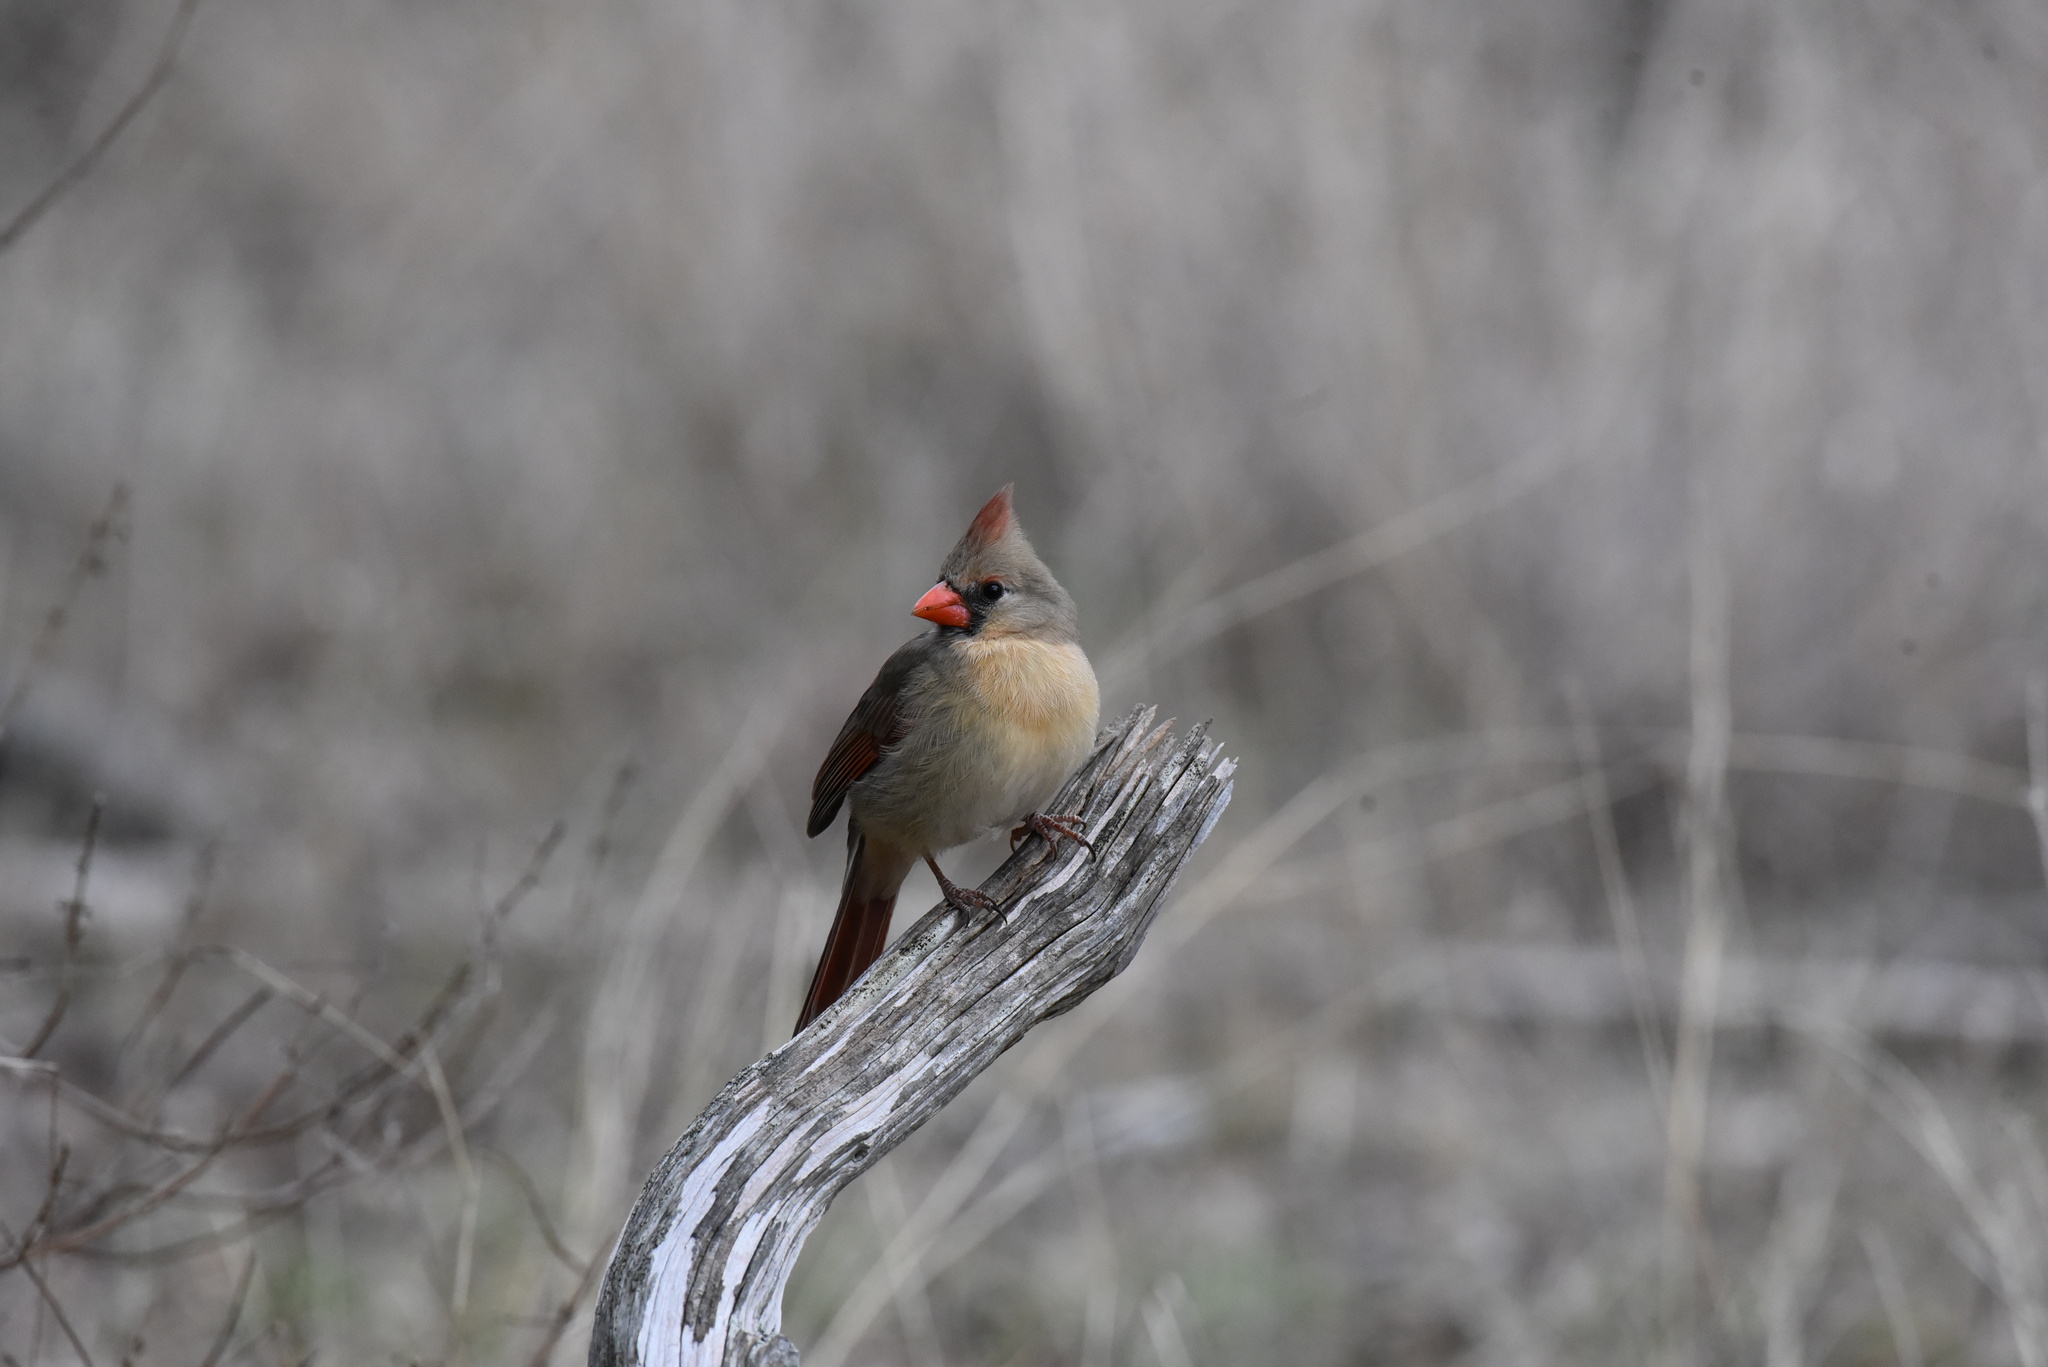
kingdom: Animalia
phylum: Chordata
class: Aves
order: Passeriformes
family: Cardinalidae
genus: Cardinalis
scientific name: Cardinalis cardinalis
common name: Northern cardinal
